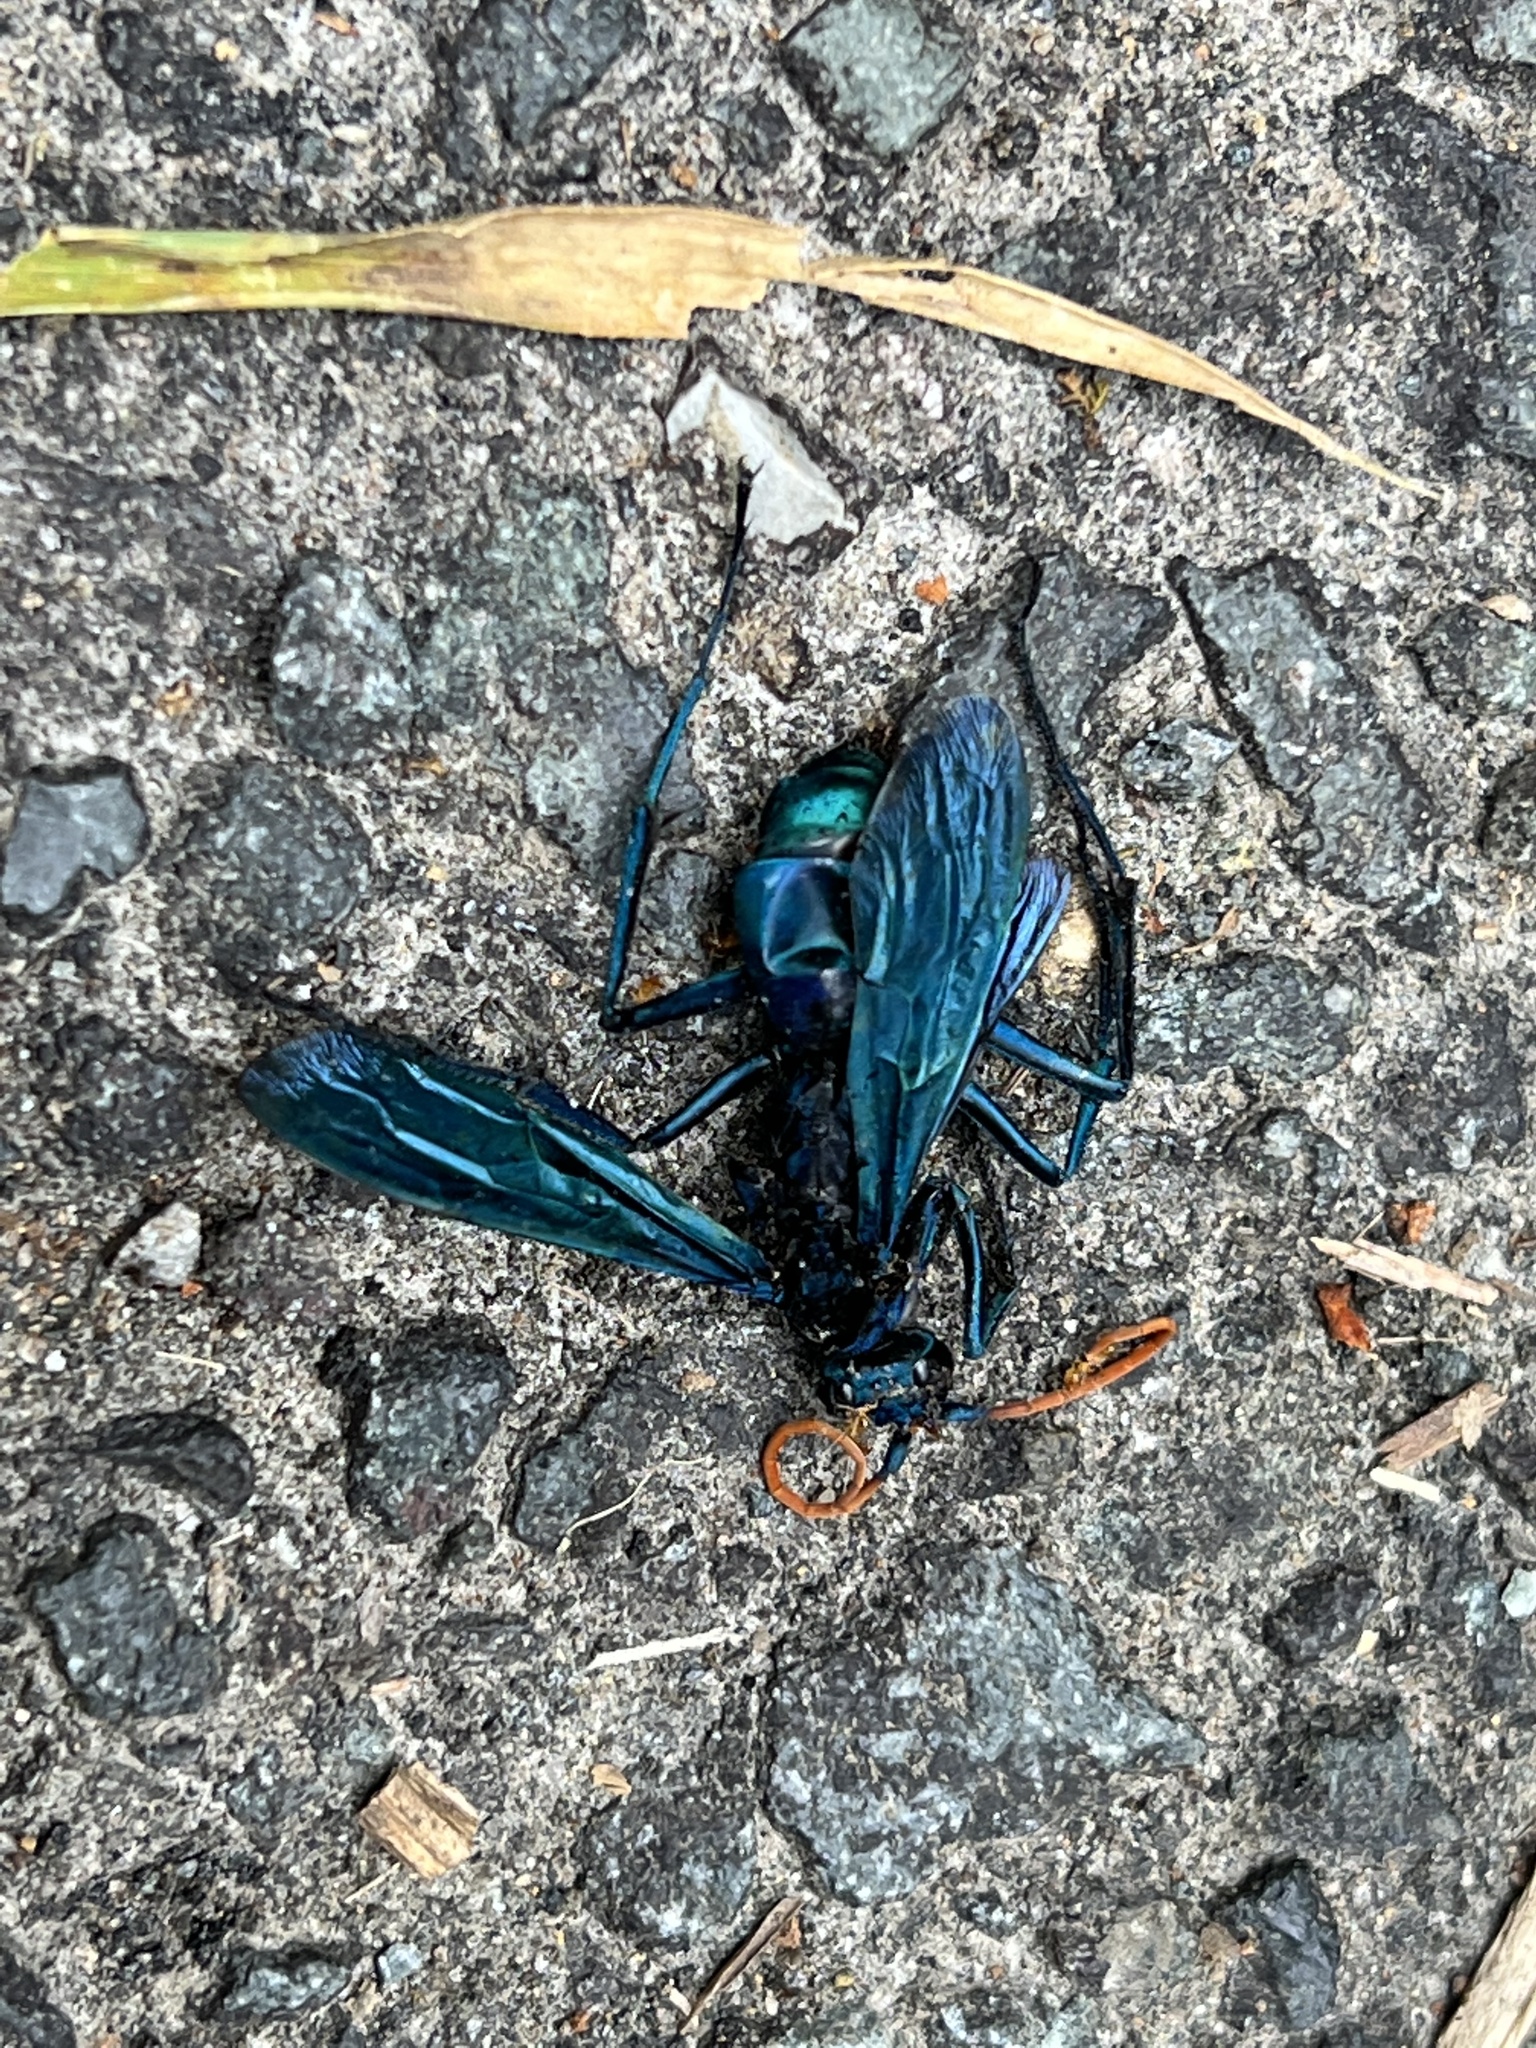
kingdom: Animalia
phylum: Arthropoda
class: Insecta
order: Hymenoptera
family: Pompilidae
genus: Pepsis
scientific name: Pepsis ruficornis
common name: Orange-horned tarantula hawk
